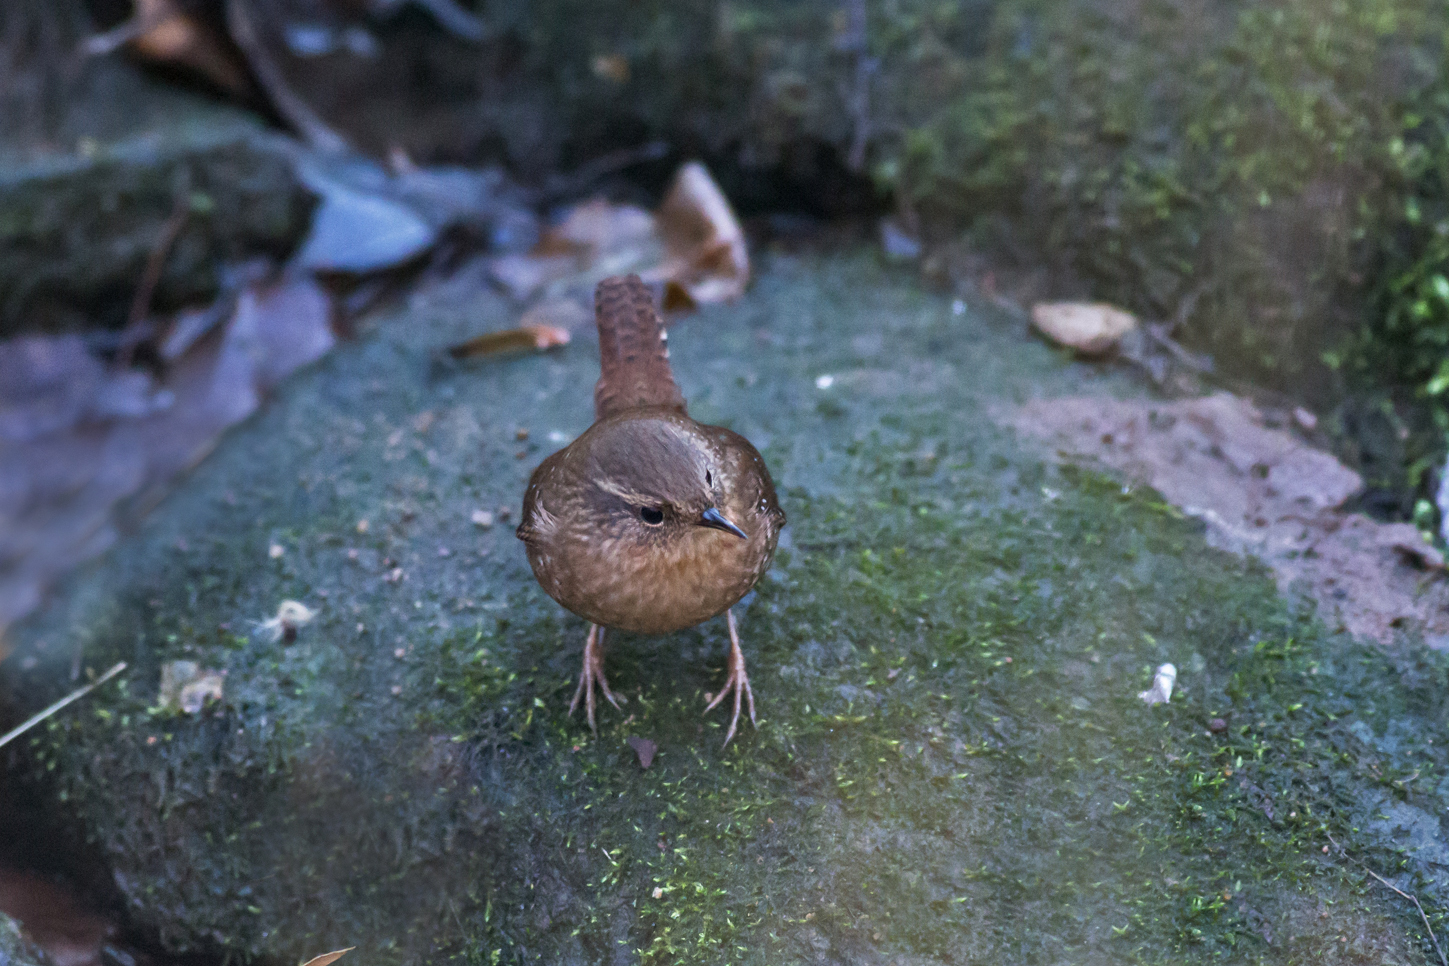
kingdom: Animalia
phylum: Chordata
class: Aves
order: Passeriformes
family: Troglodytidae
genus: Troglodytes
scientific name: Troglodytes hiemalis
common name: Winter wren
